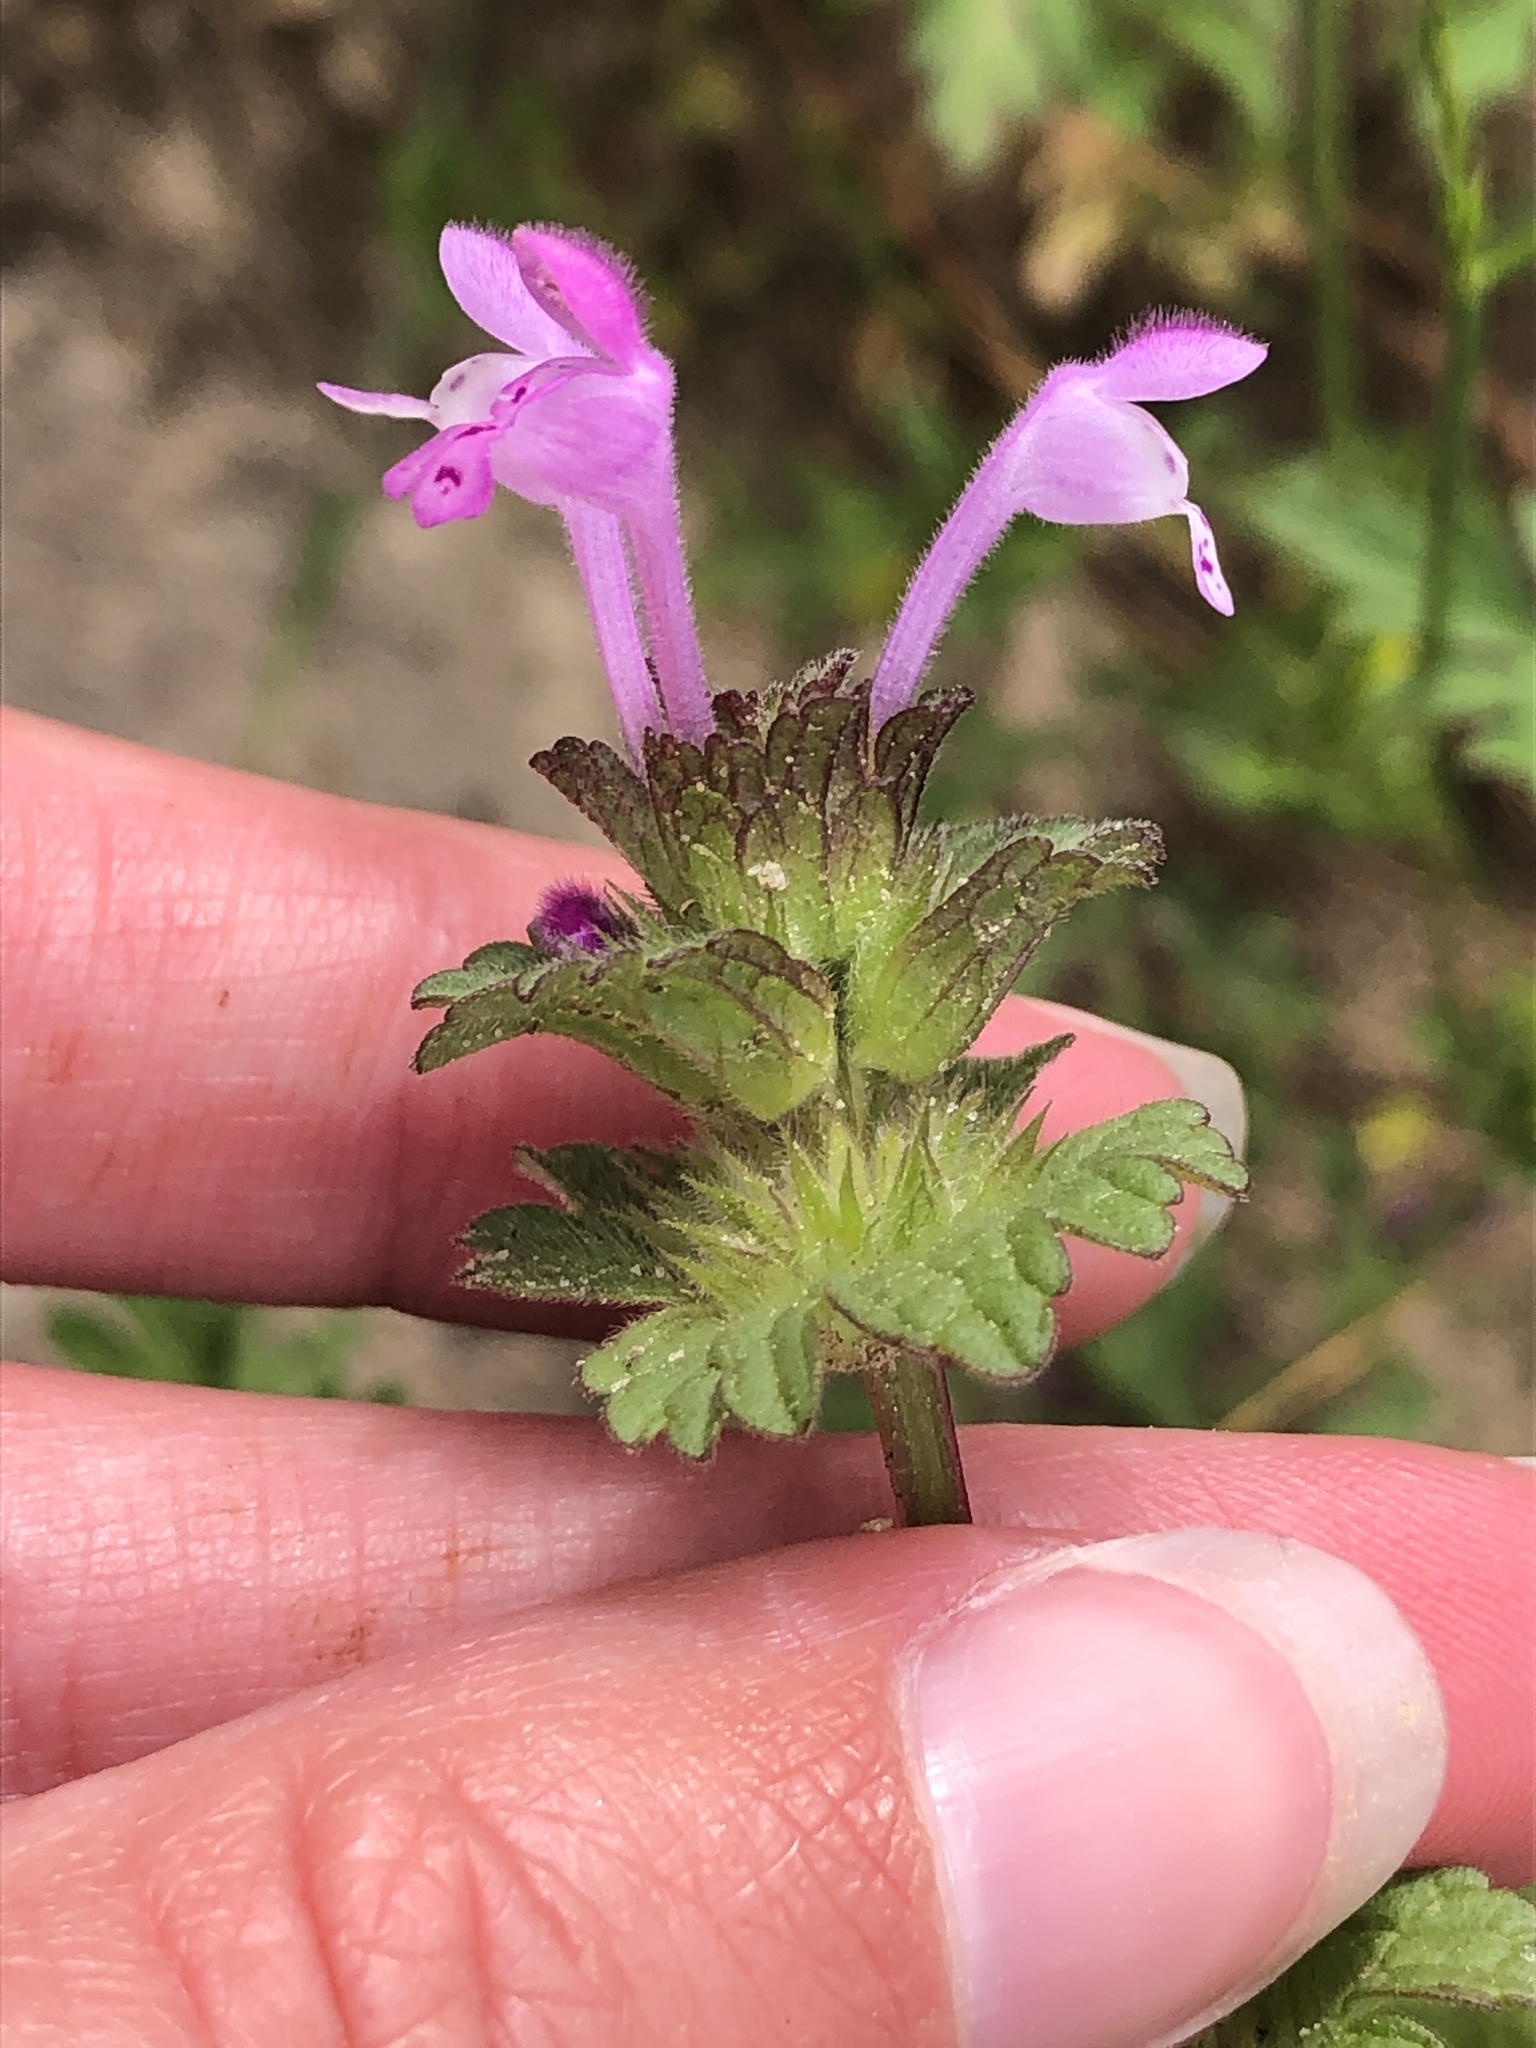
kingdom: Plantae
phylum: Tracheophyta
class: Magnoliopsida
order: Lamiales
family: Lamiaceae
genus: Lamium
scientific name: Lamium amplexicaule
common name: Henbit dead-nettle
